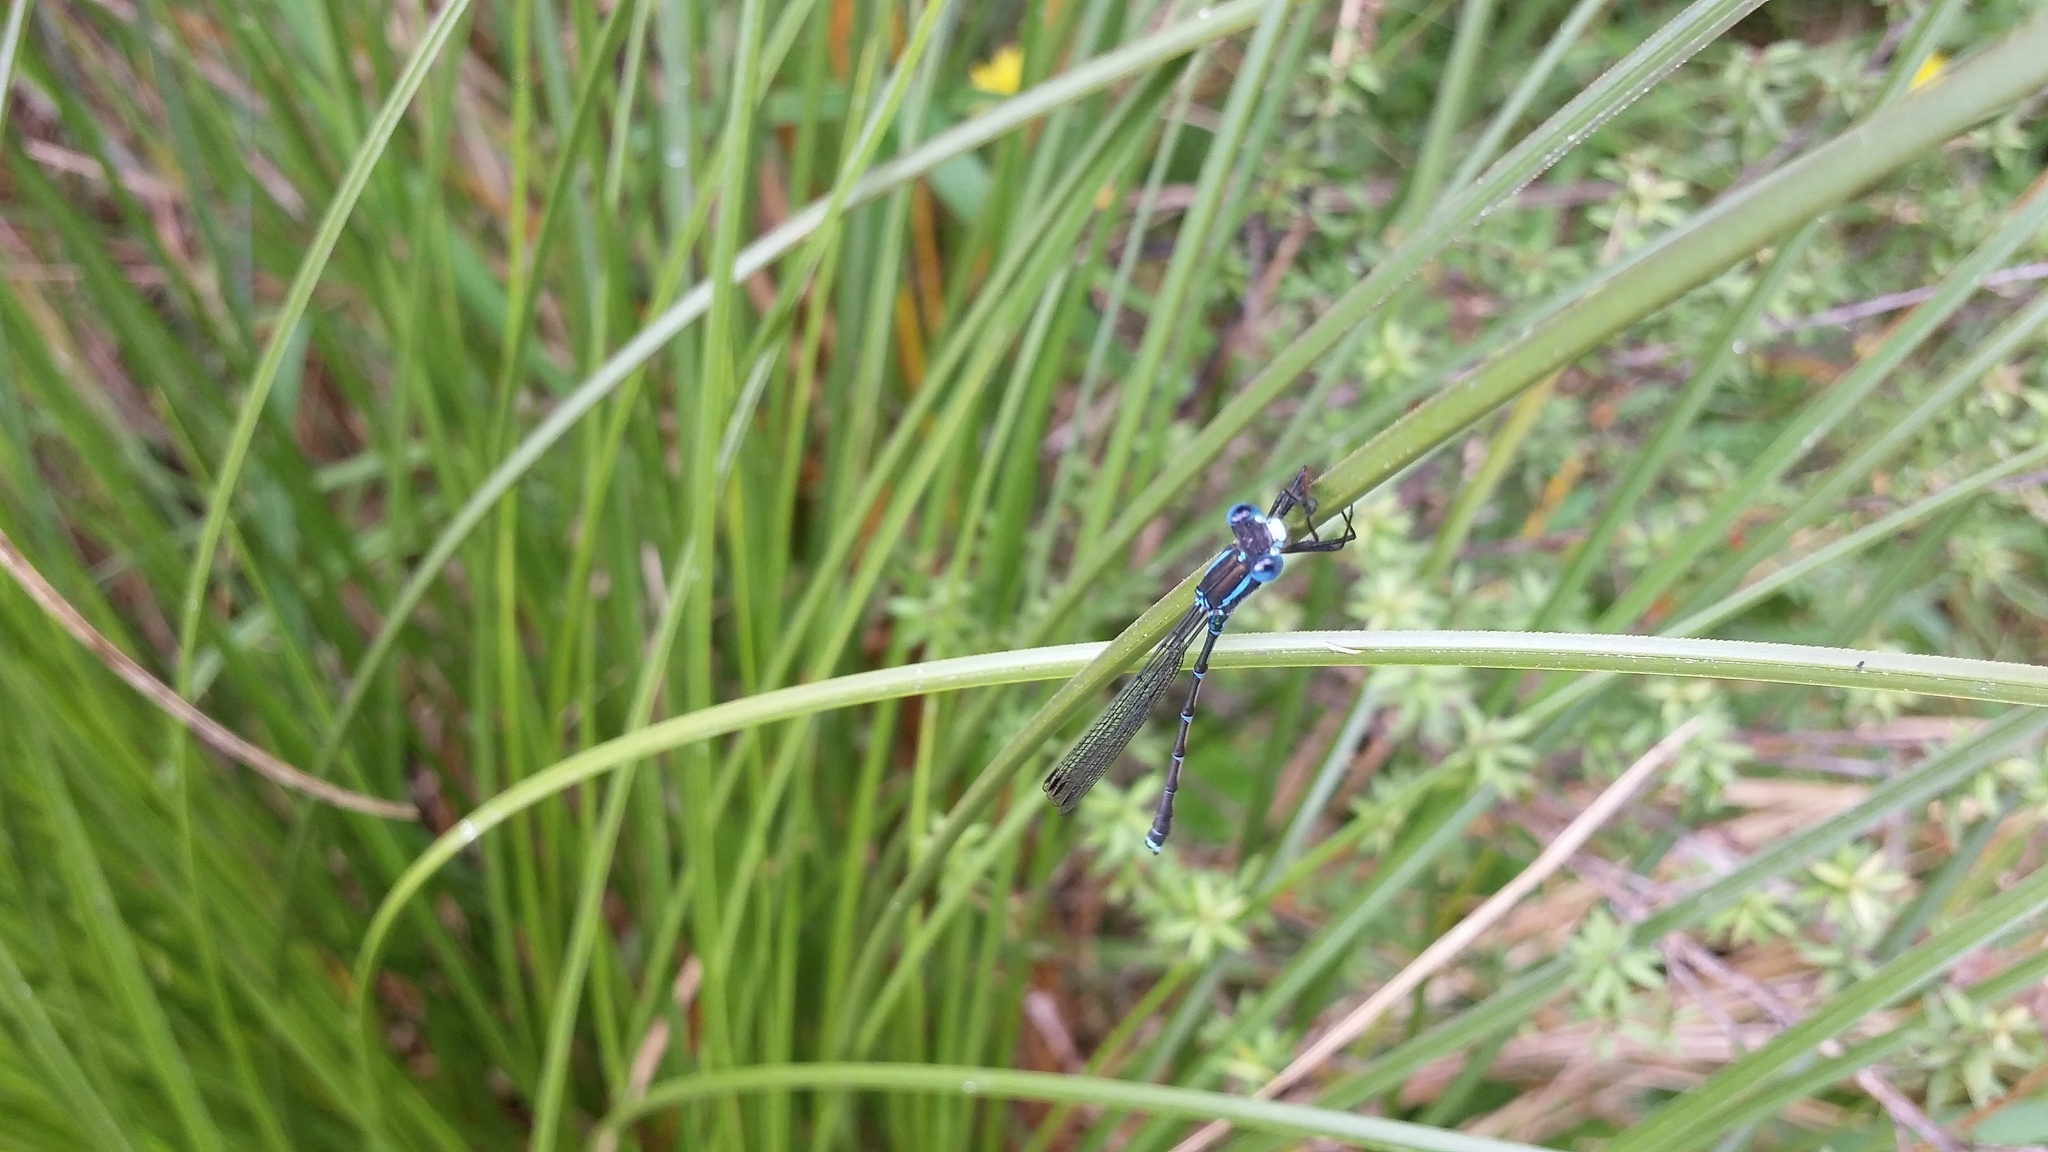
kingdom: Animalia
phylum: Arthropoda
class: Insecta
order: Odonata
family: Lestidae
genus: Austrolestes
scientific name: Austrolestes colensonis
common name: Blue damselfly
